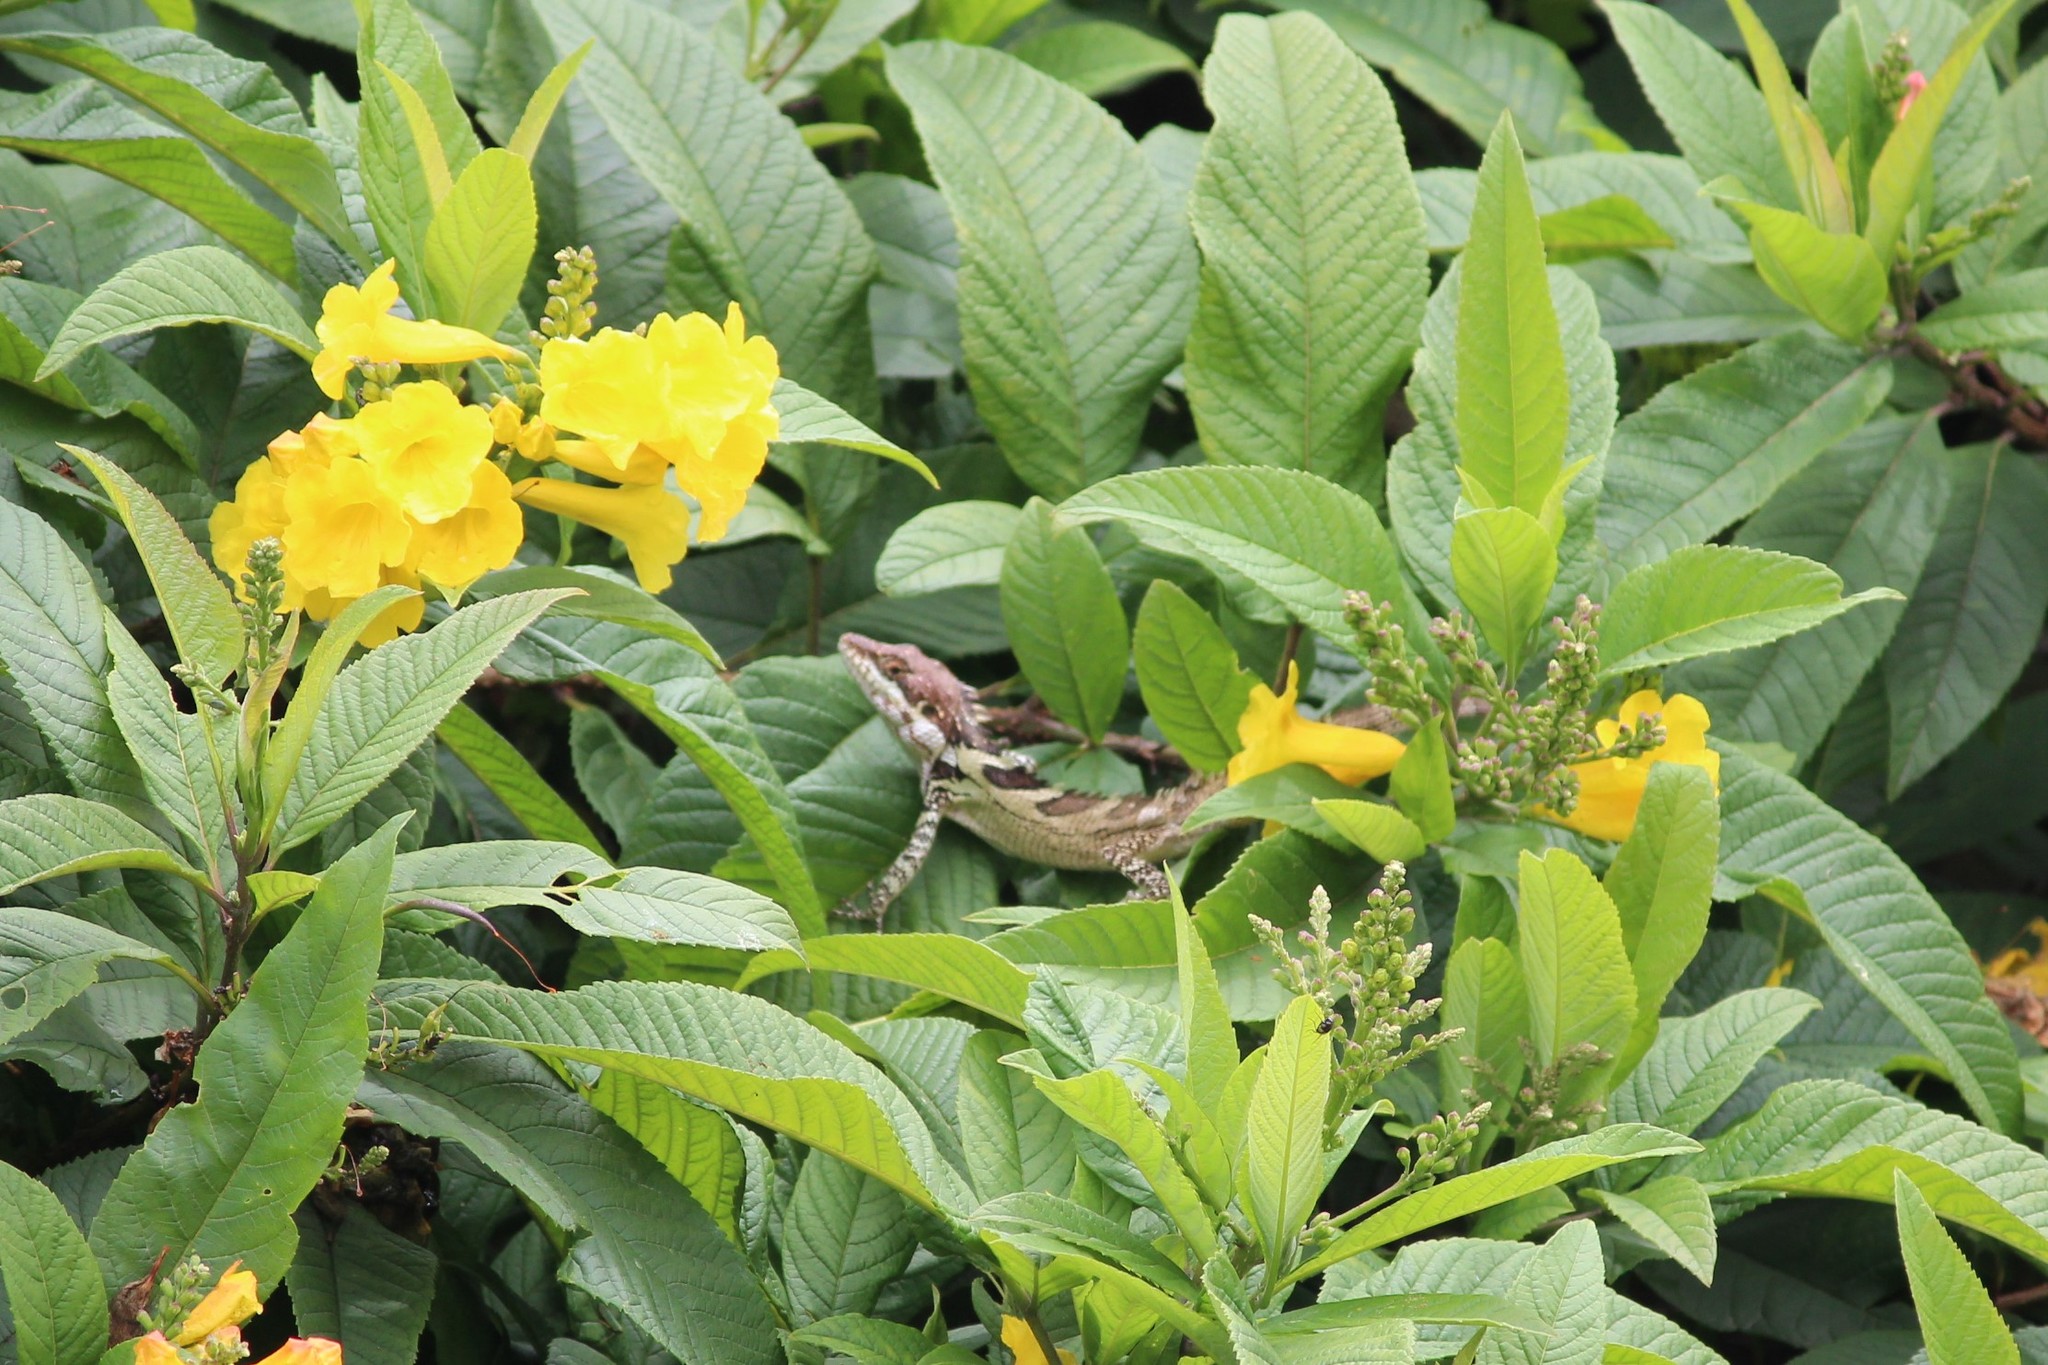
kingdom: Animalia
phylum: Chordata
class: Squamata
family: Agamidae
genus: Salea
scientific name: Salea anamallayana
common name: Anaimalai spiny lizard
